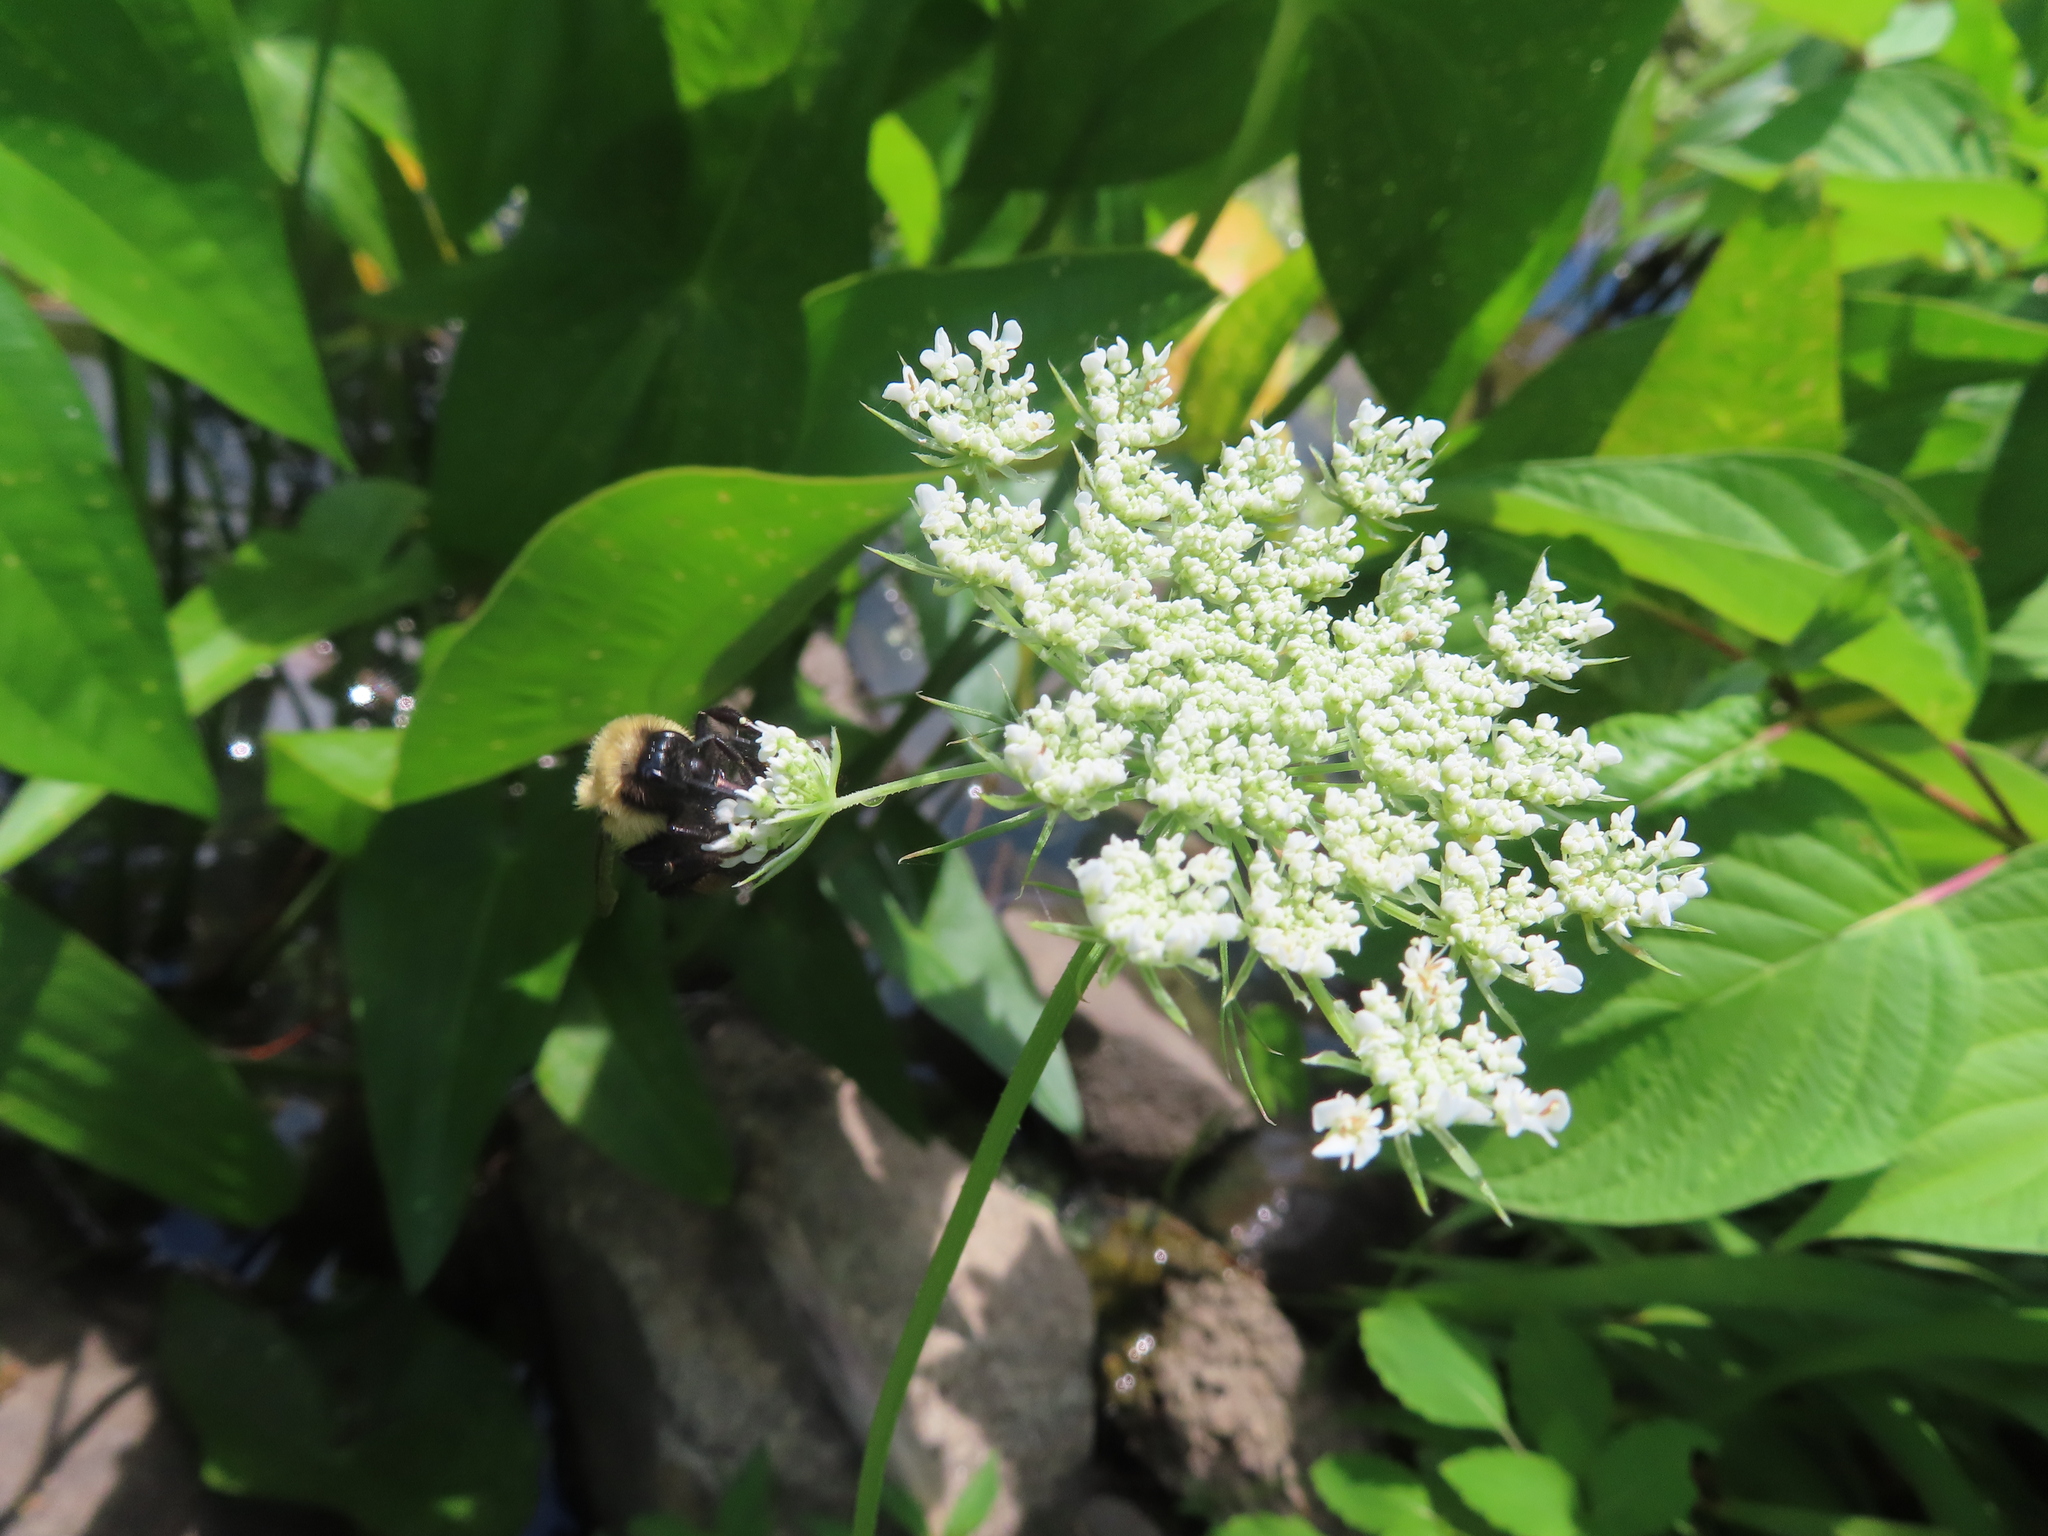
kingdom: Plantae
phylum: Tracheophyta
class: Magnoliopsida
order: Apiales
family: Apiaceae
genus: Daucus
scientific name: Daucus carota
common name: Wild carrot
